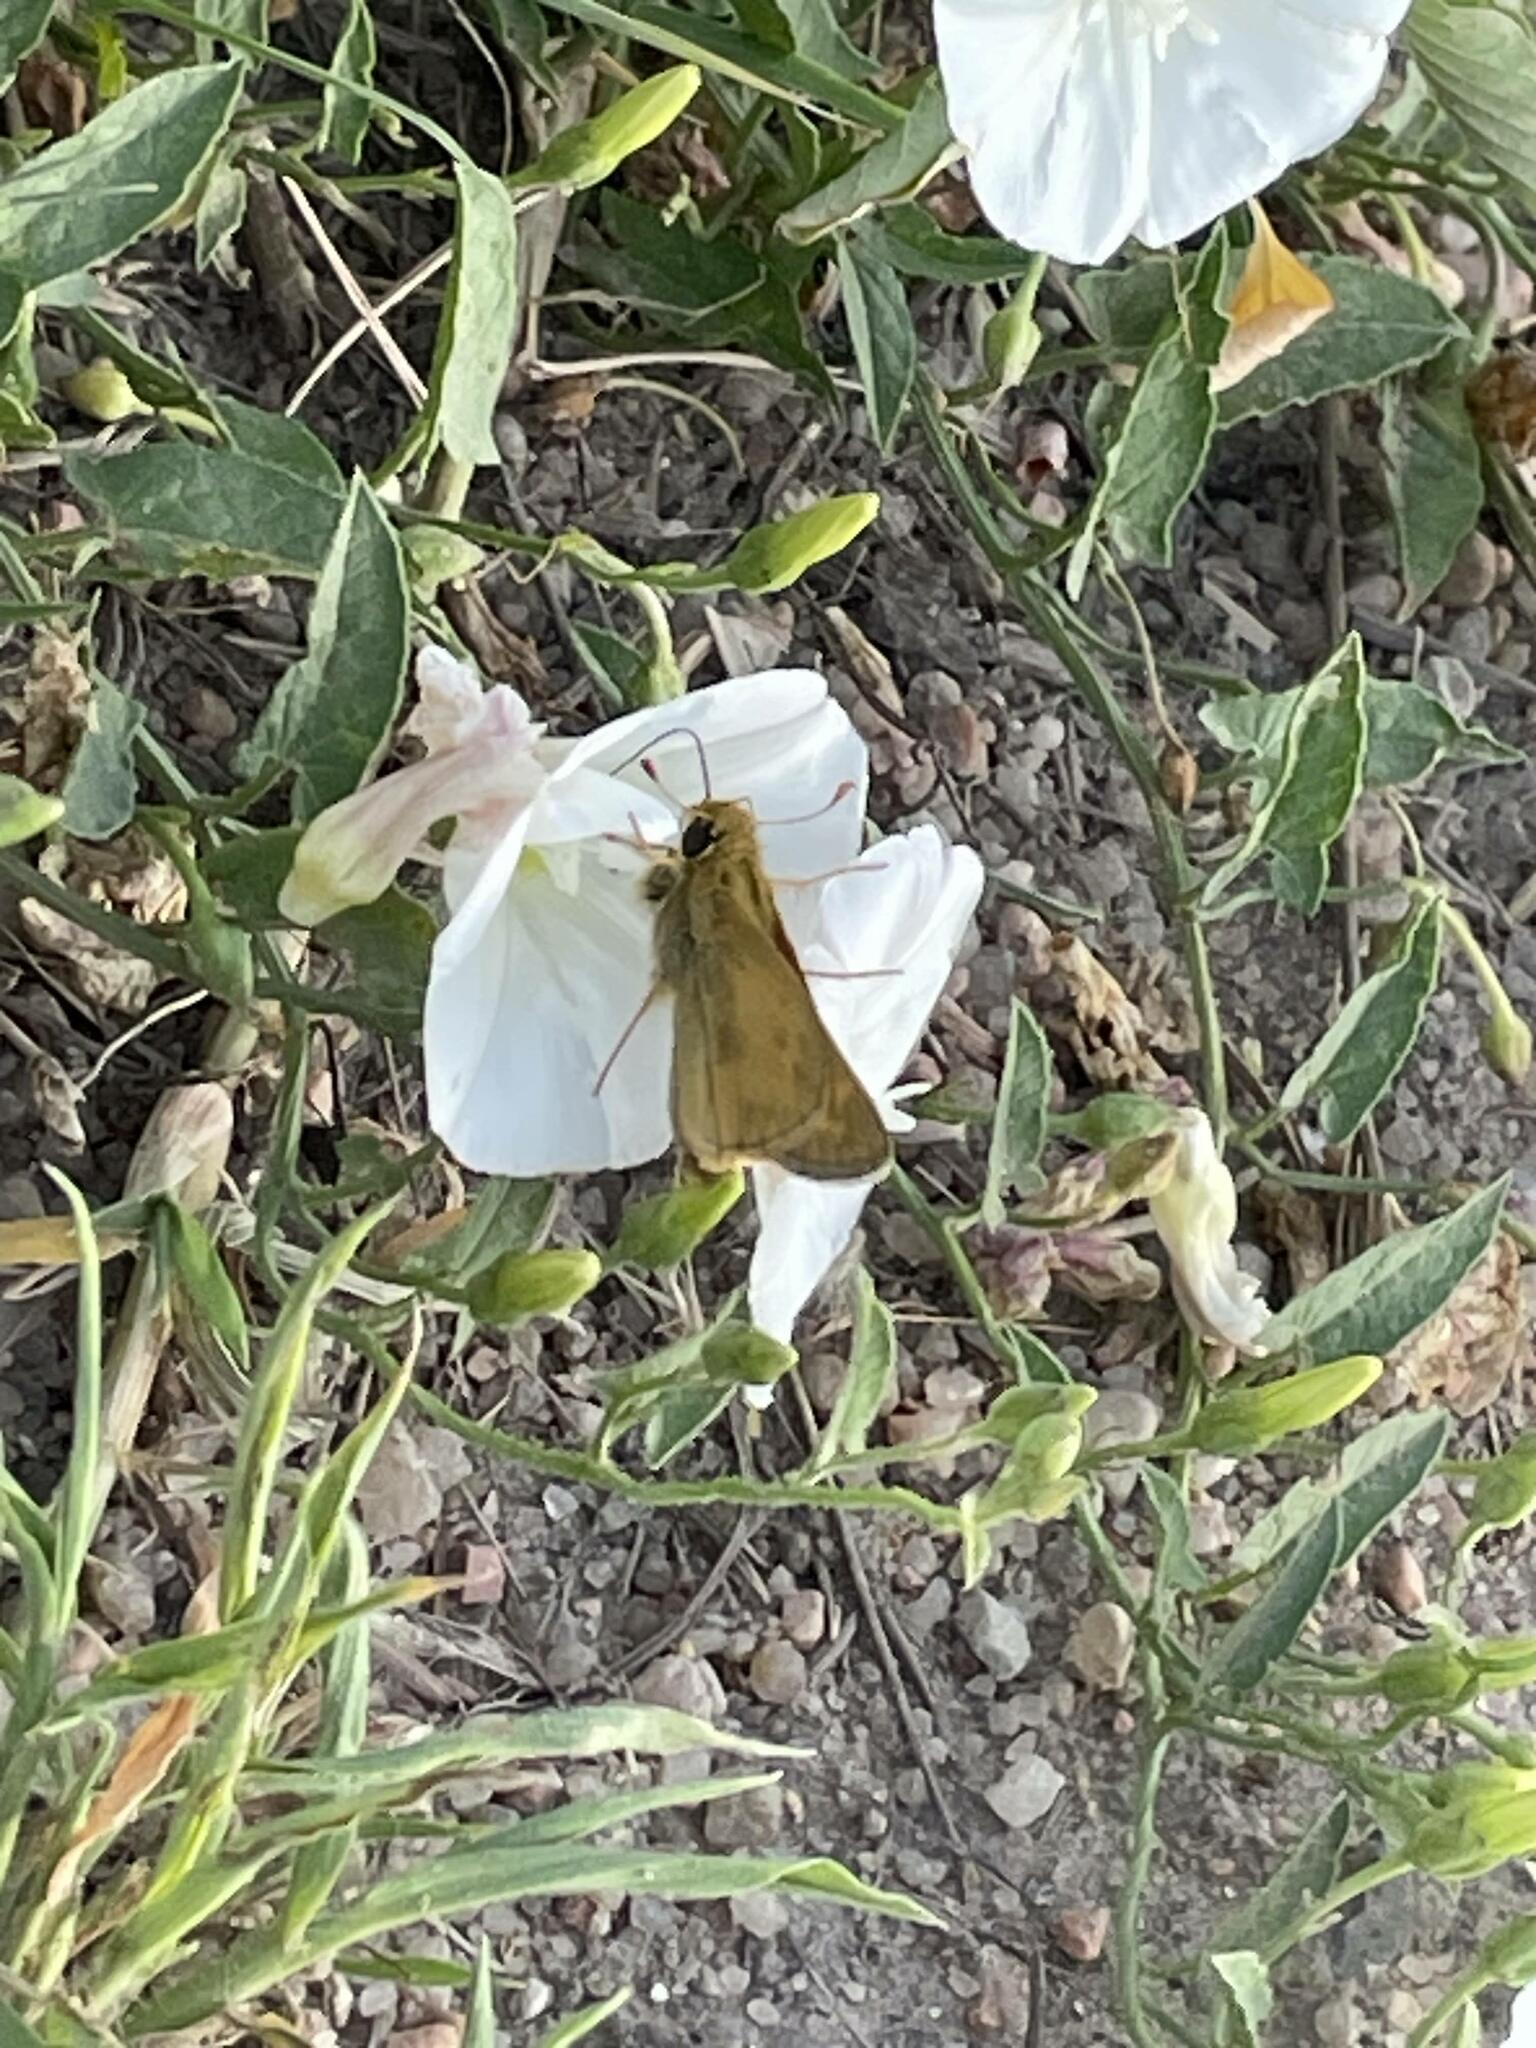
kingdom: Animalia
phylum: Arthropoda
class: Insecta
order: Lepidoptera
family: Hesperiidae
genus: Atalopedes
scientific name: Atalopedes
